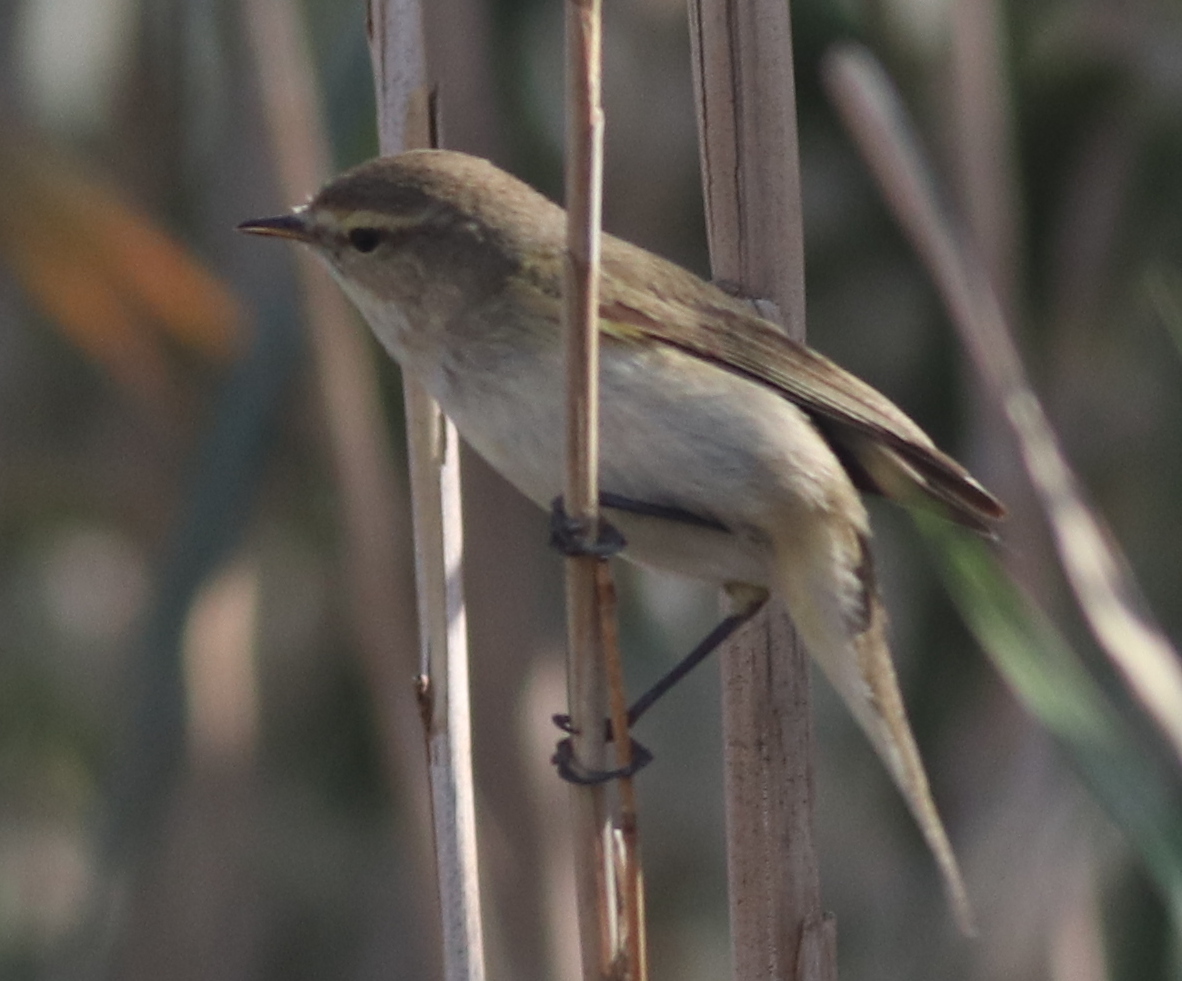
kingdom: Animalia
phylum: Chordata
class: Aves
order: Passeriformes
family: Phylloscopidae
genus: Phylloscopus
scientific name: Phylloscopus collybita
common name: Common chiffchaff
